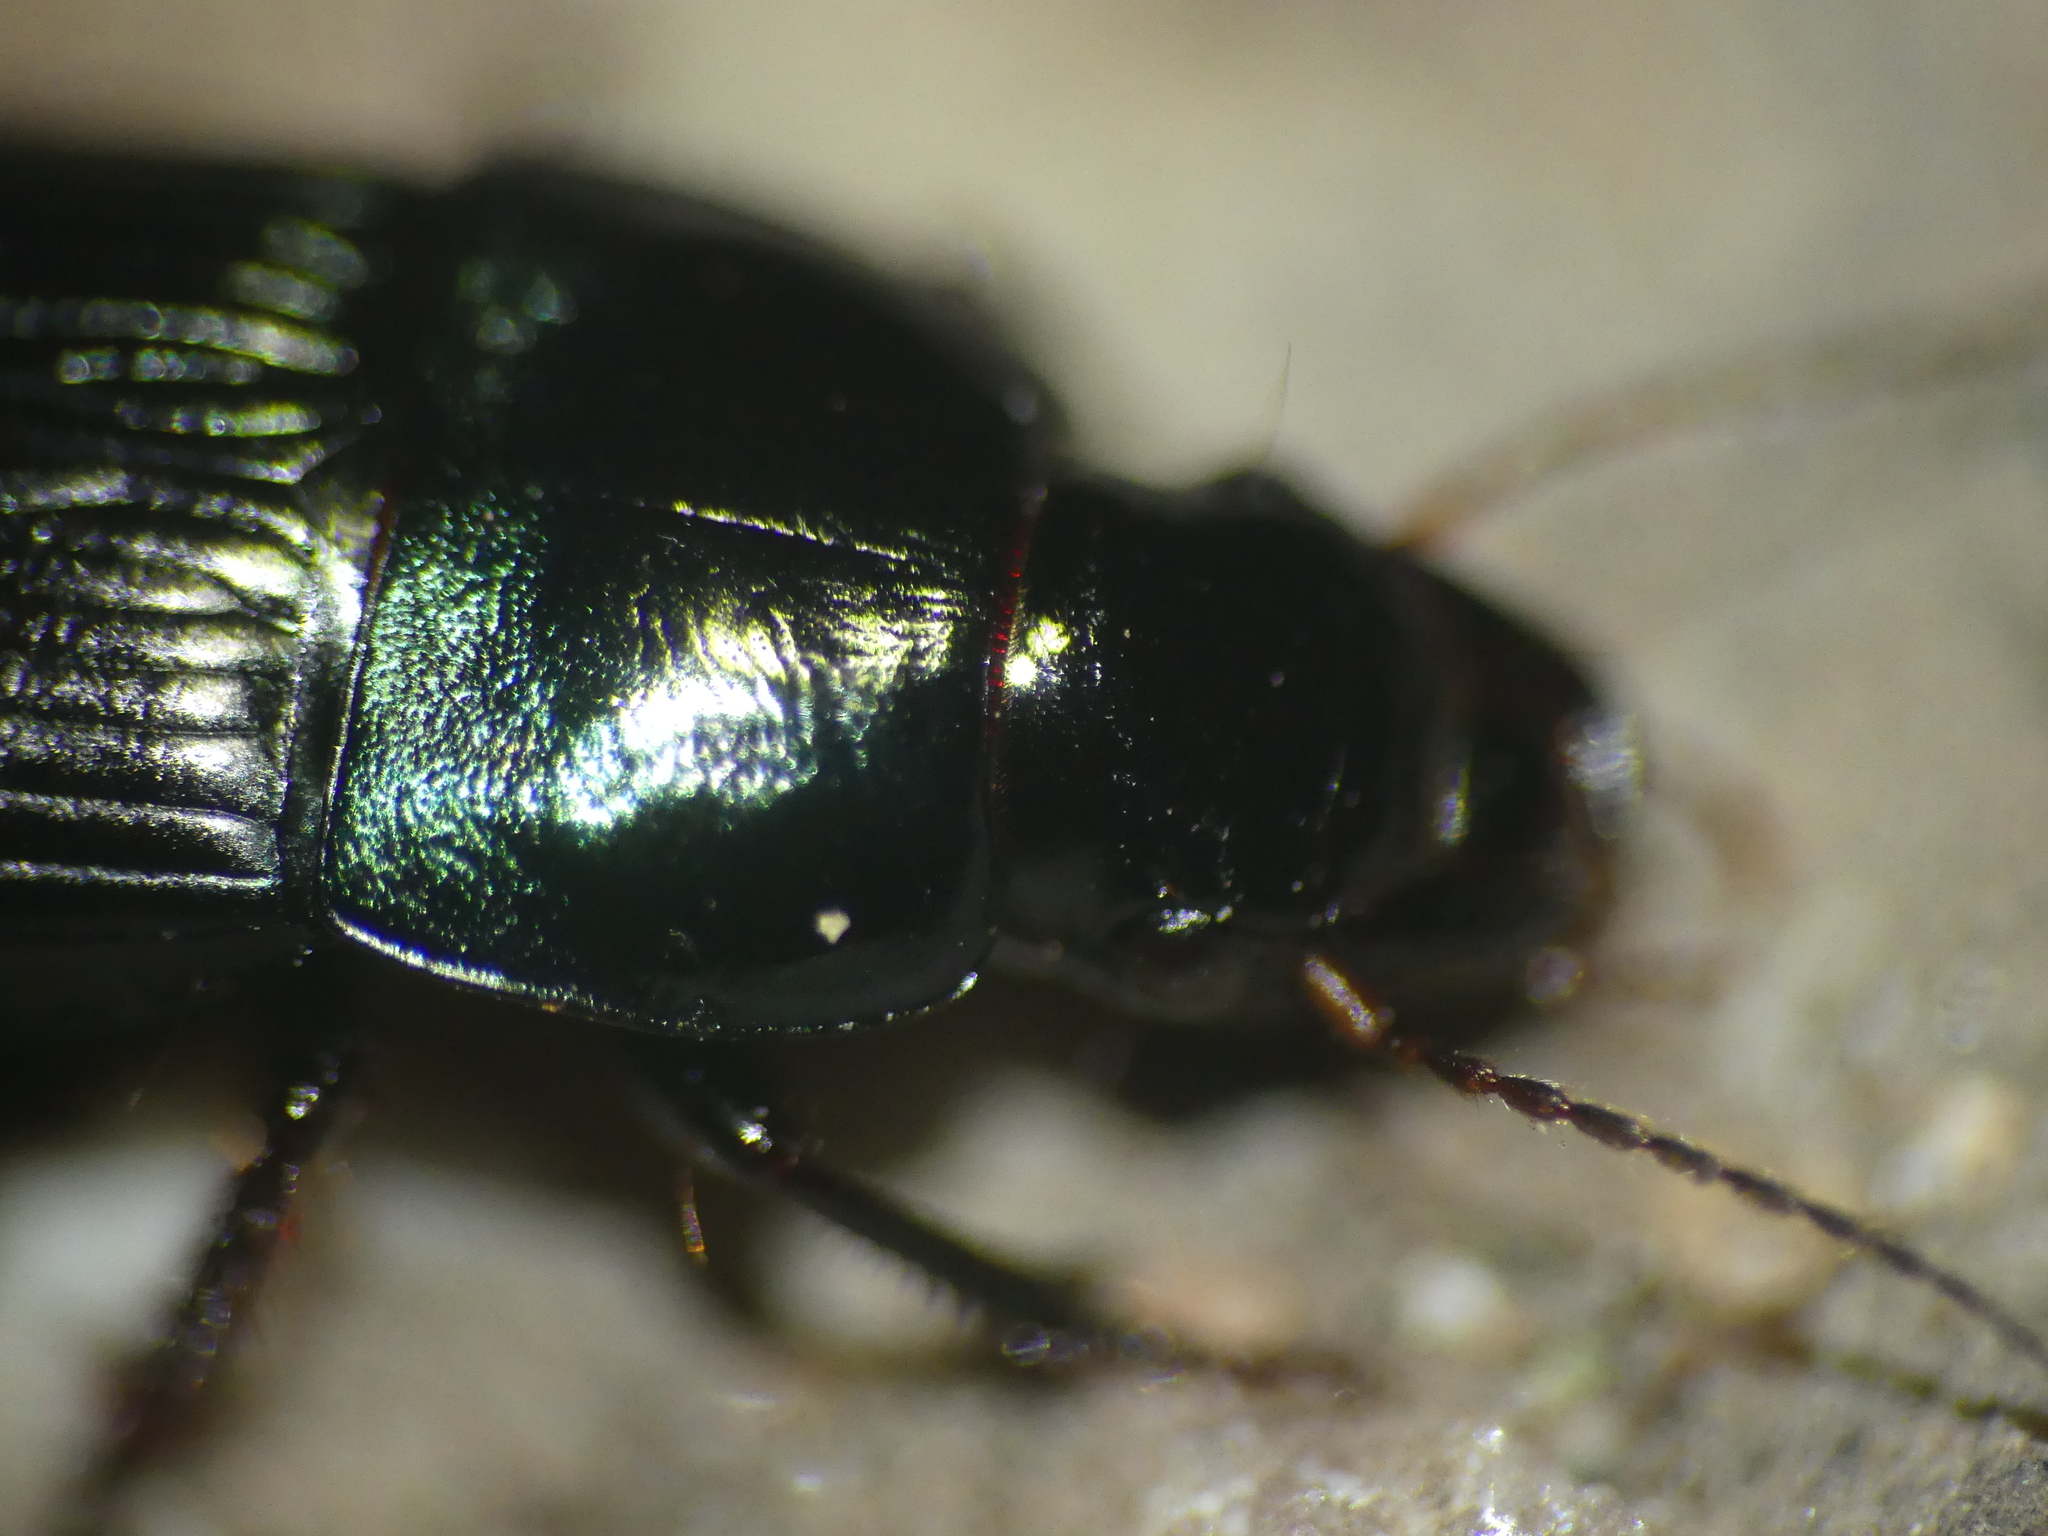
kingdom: Animalia
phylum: Arthropoda
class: Insecta
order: Coleoptera
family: Carabidae
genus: Harpalus
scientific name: Harpalus dimidiatus
